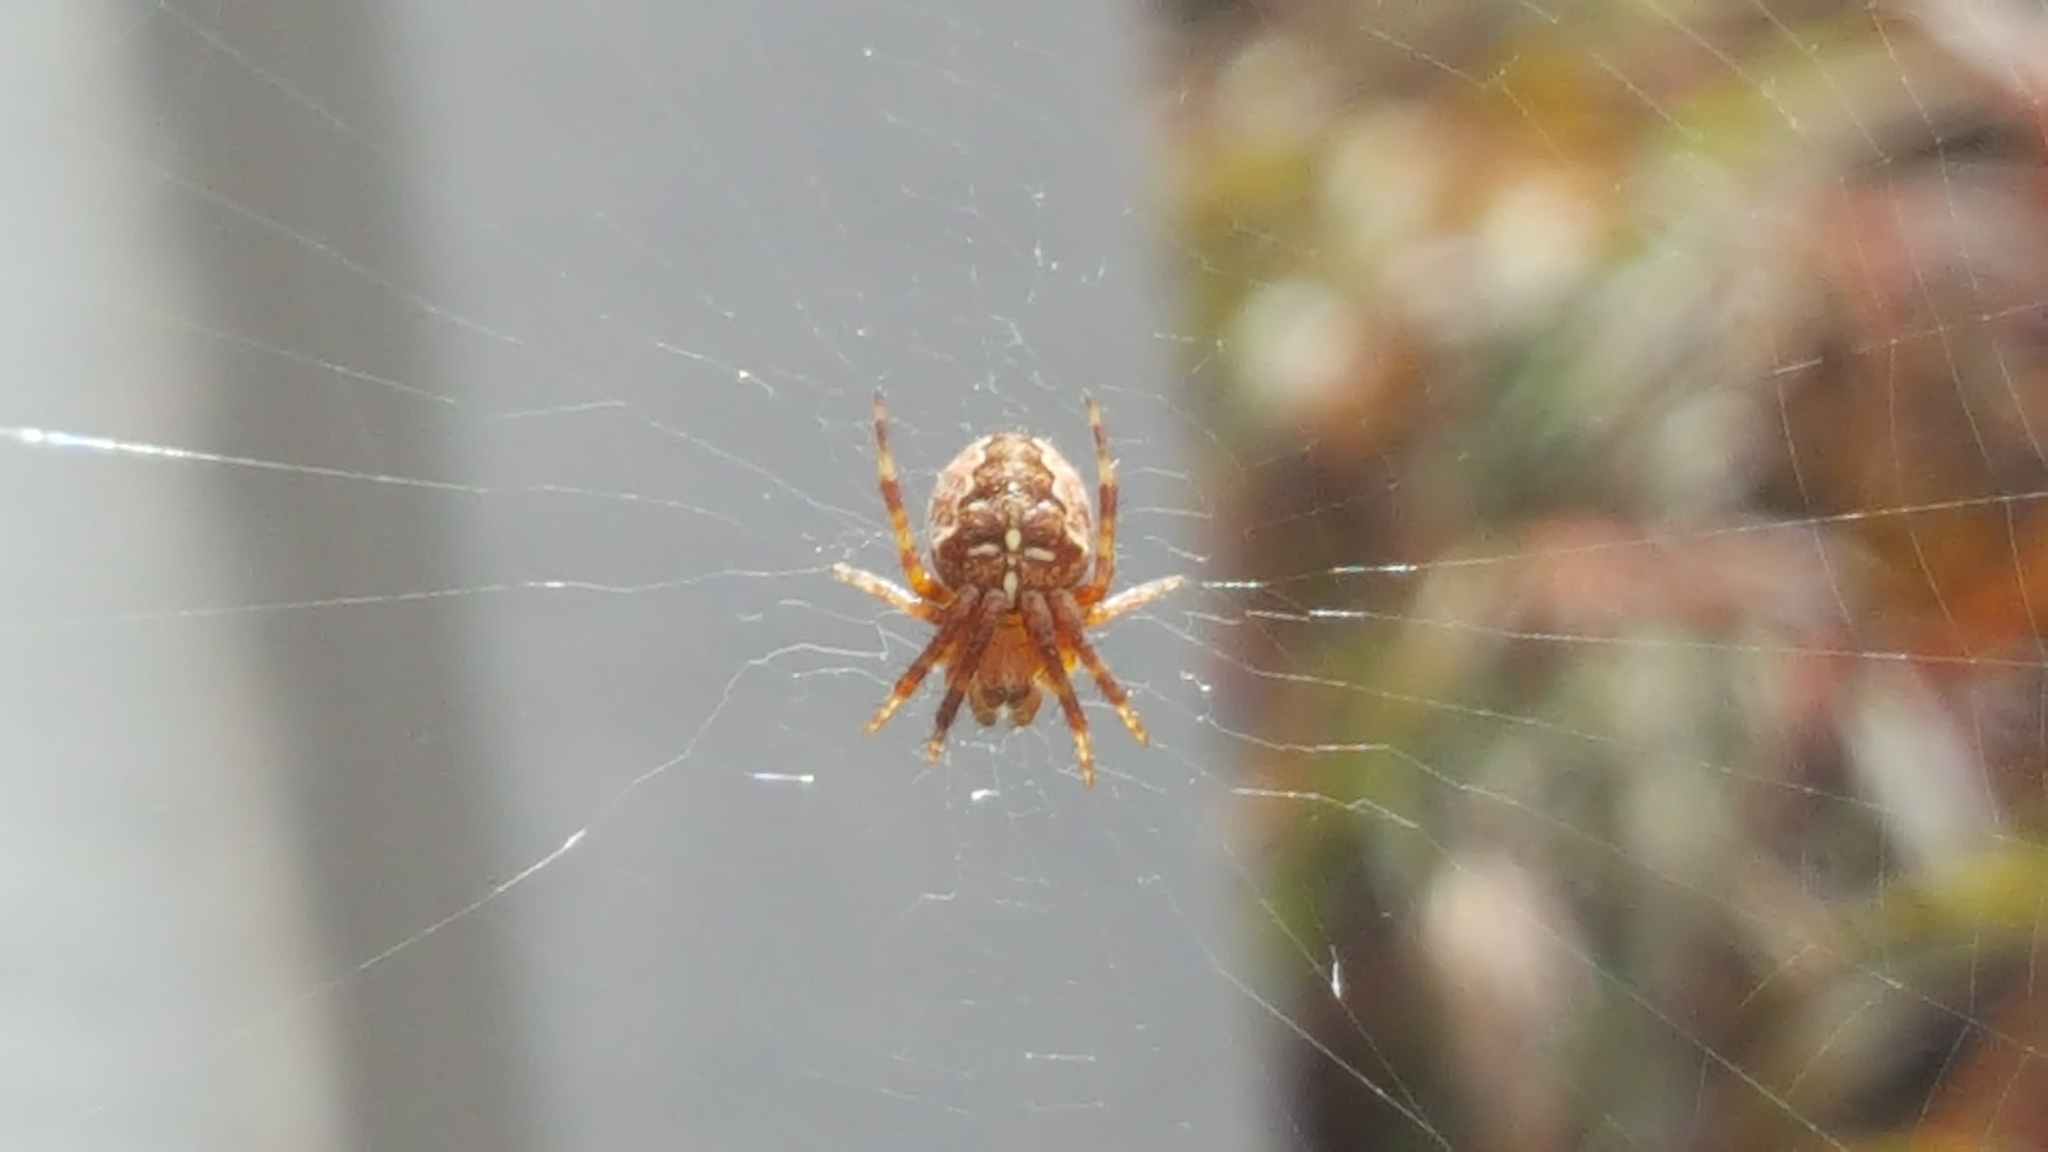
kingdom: Animalia
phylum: Arthropoda
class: Arachnida
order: Araneae
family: Araneidae
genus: Araneus
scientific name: Araneus diadematus
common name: Cross orbweaver
